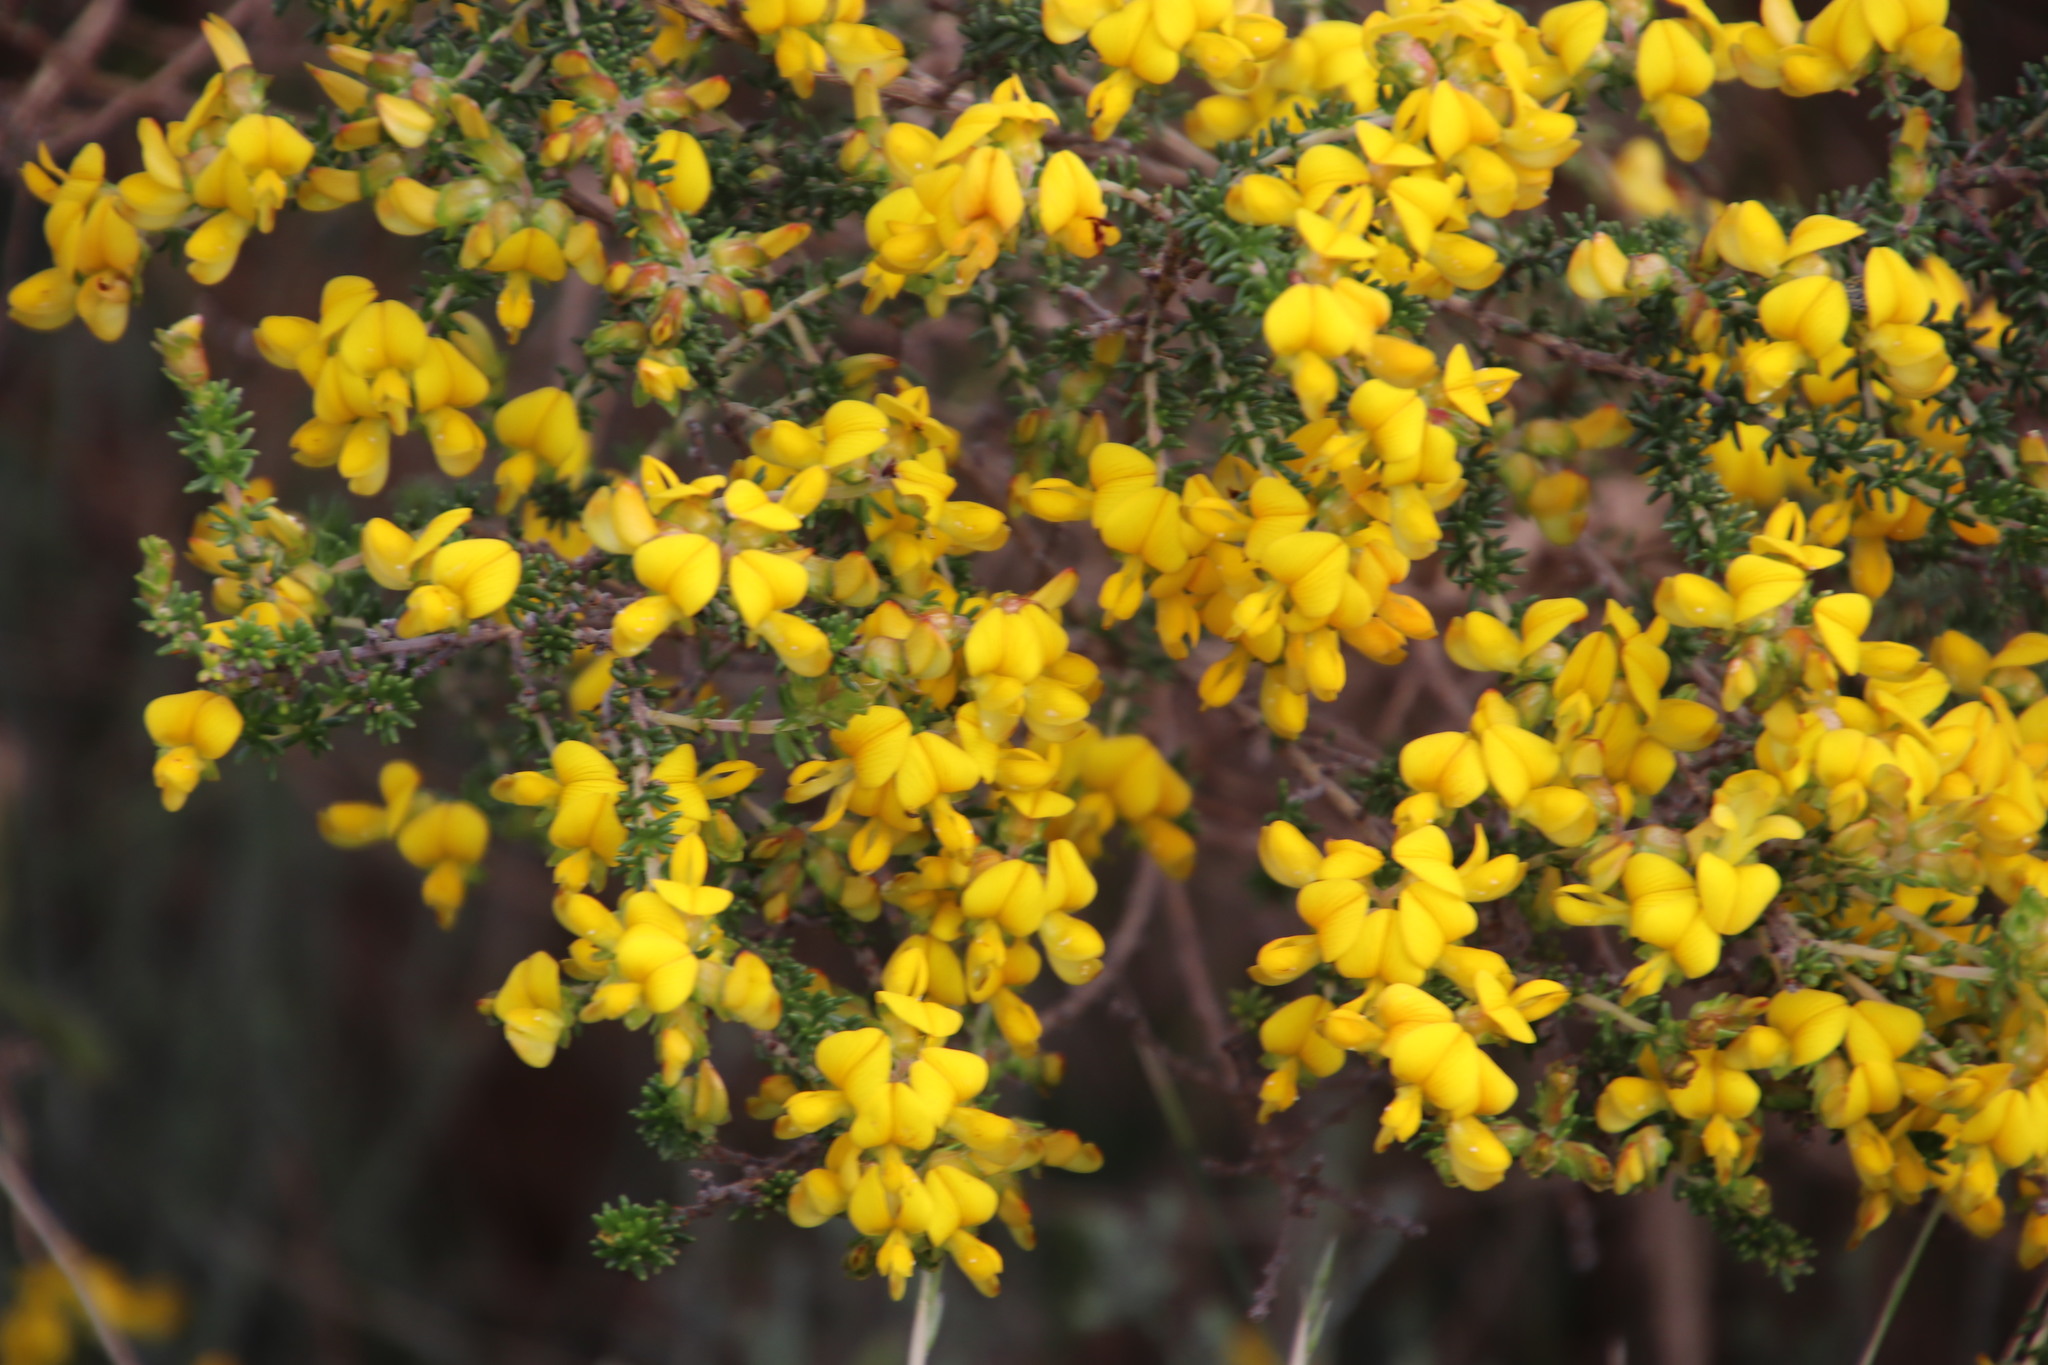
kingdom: Plantae
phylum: Tracheophyta
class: Magnoliopsida
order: Fabales
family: Fabaceae
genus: Aspalathus
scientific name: Aspalathus carnosa
